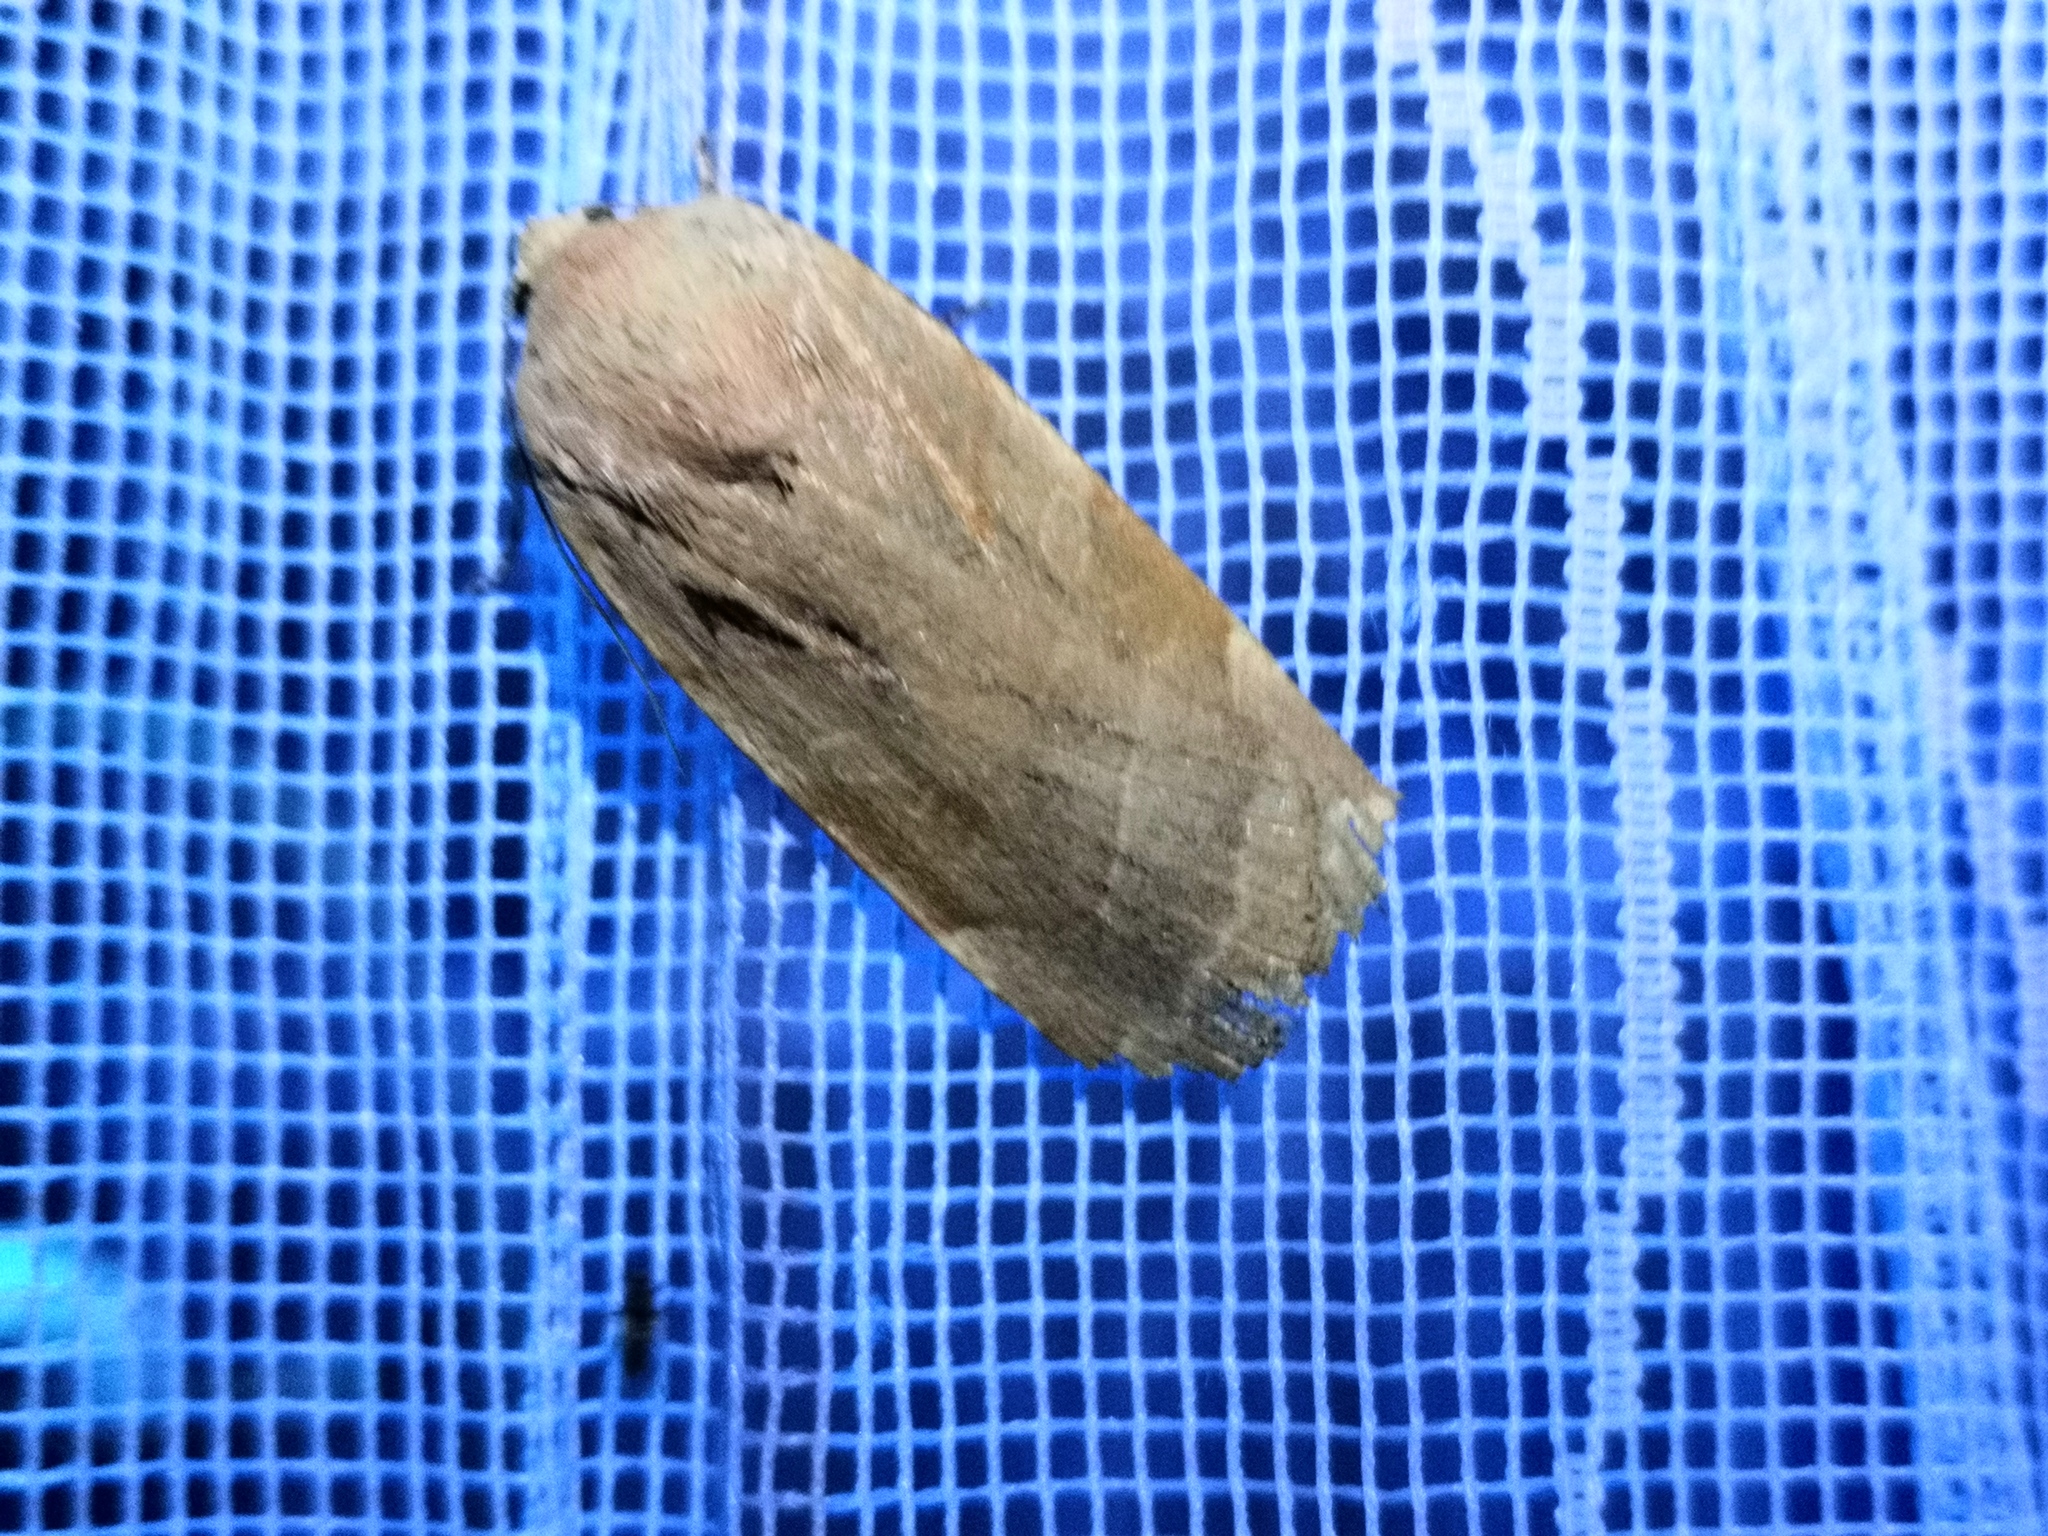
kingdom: Animalia
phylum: Arthropoda
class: Insecta
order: Lepidoptera
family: Noctuidae
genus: Noctua
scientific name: Noctua fimbriata
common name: Broad-bordered yellow underwing
